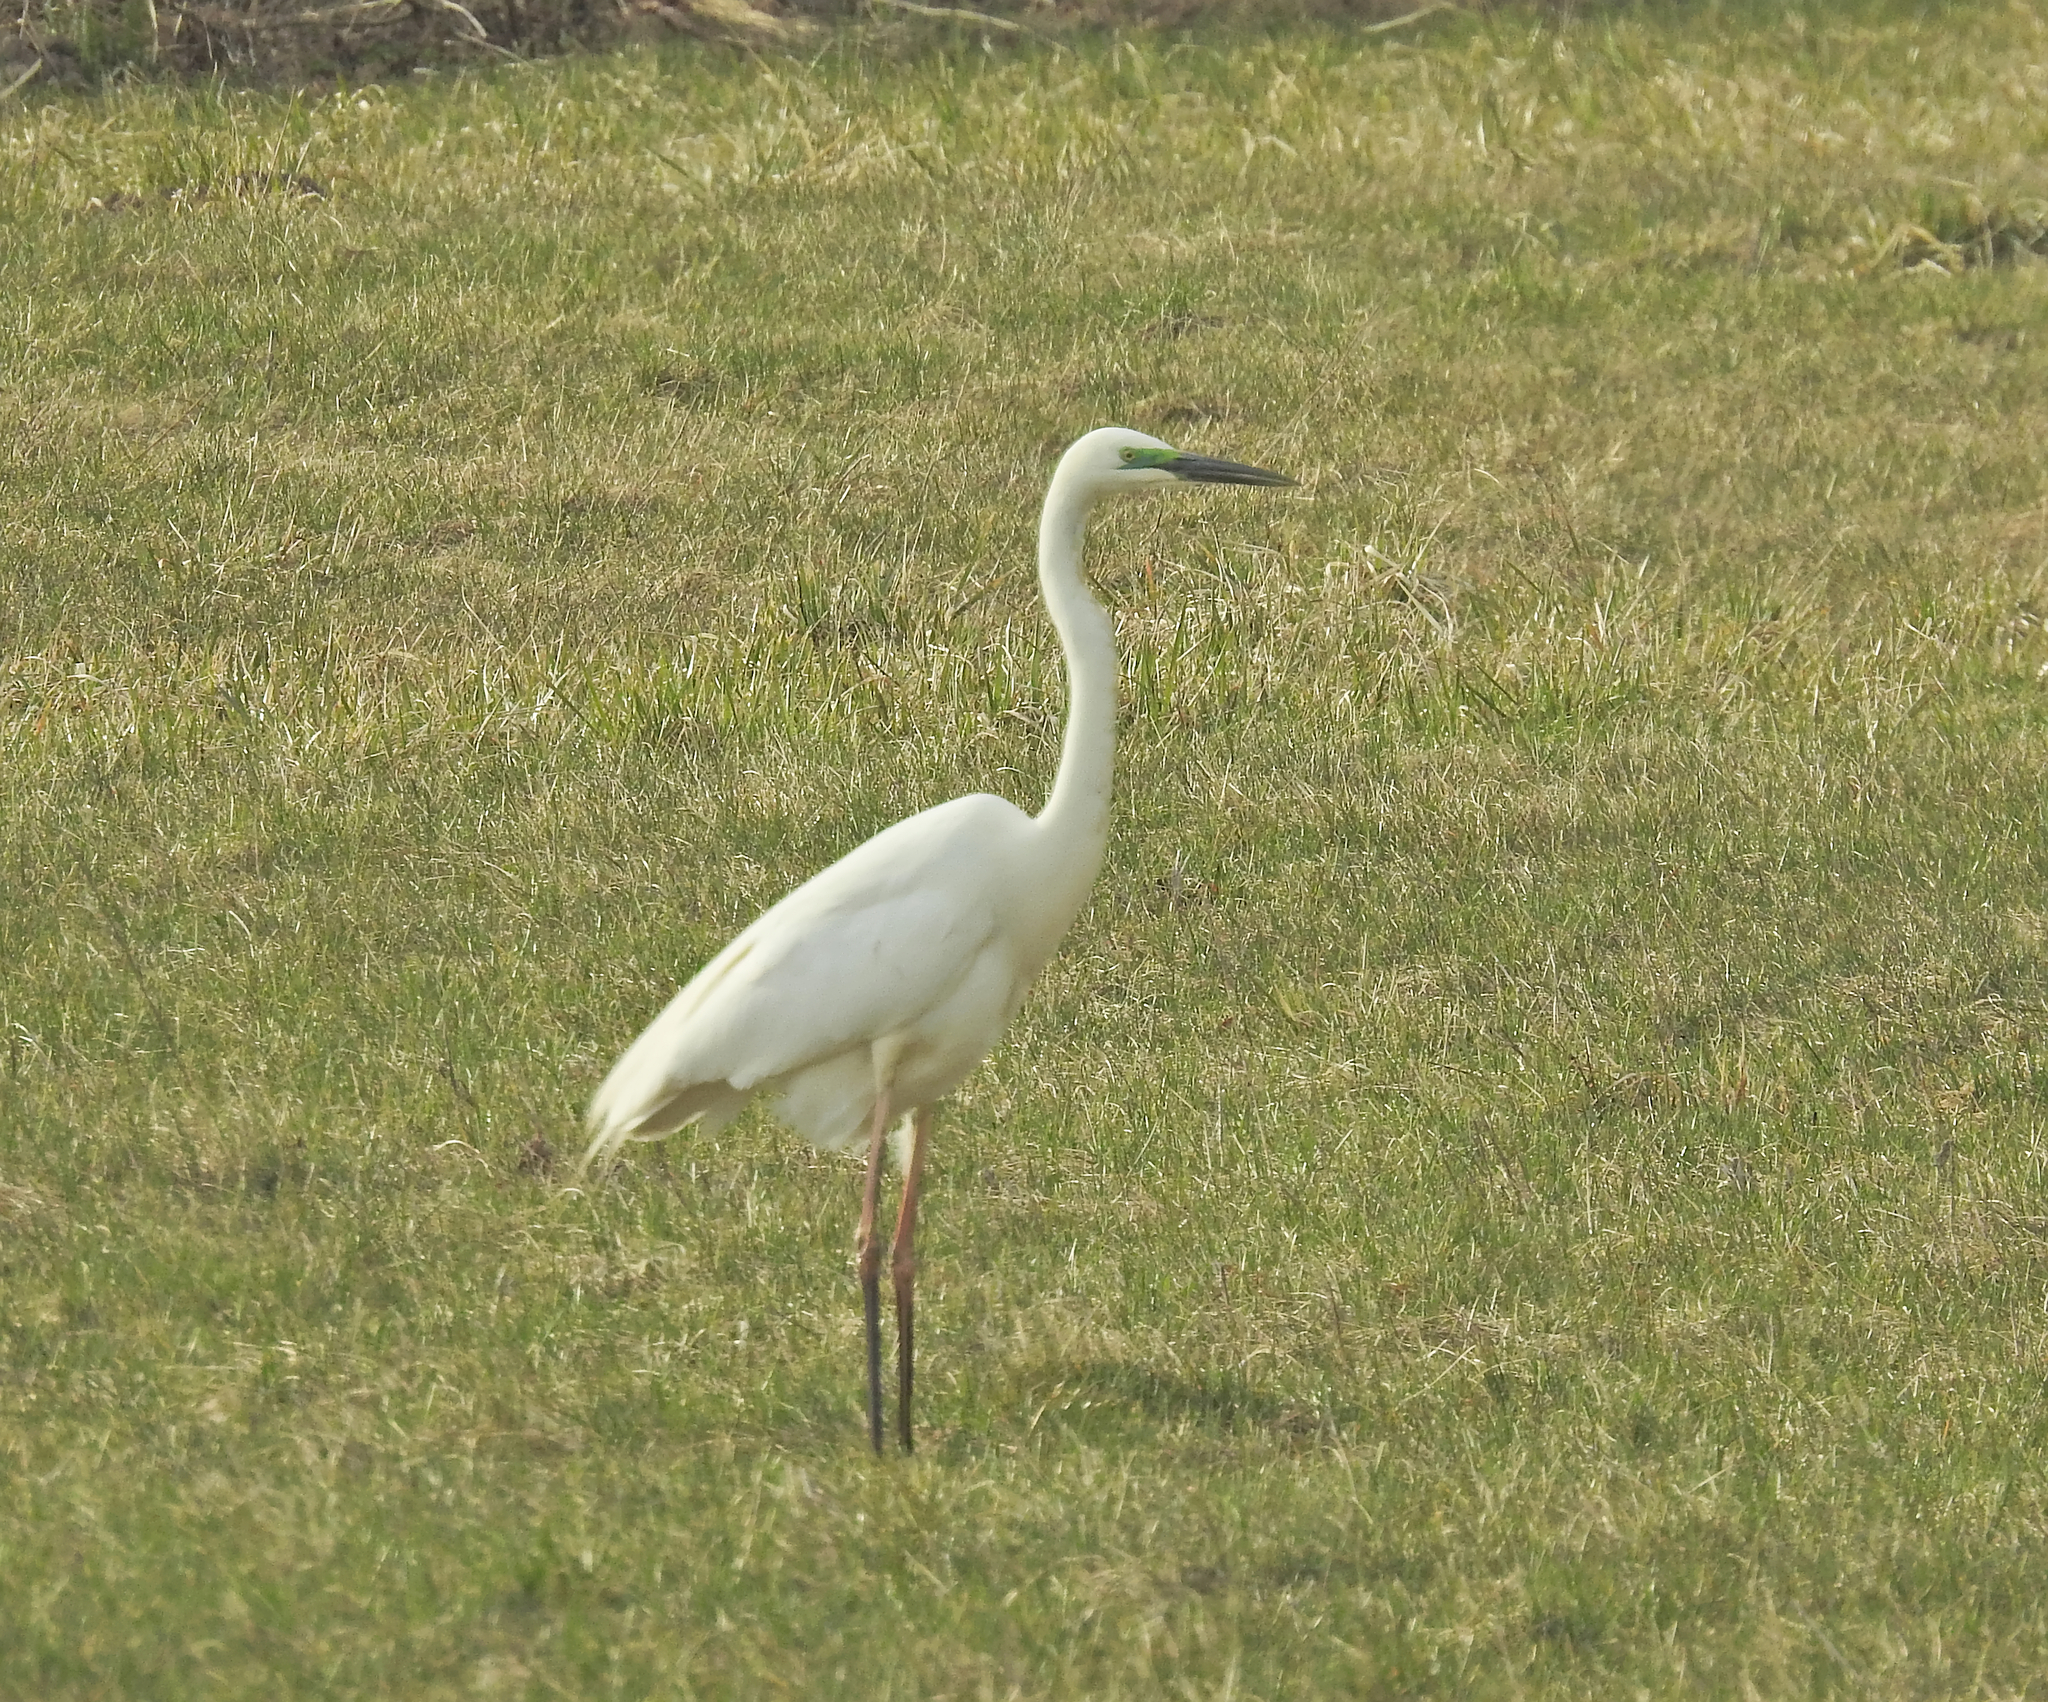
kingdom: Animalia
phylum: Chordata
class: Aves
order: Pelecaniformes
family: Ardeidae
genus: Ardea
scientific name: Ardea alba
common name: Great egret
